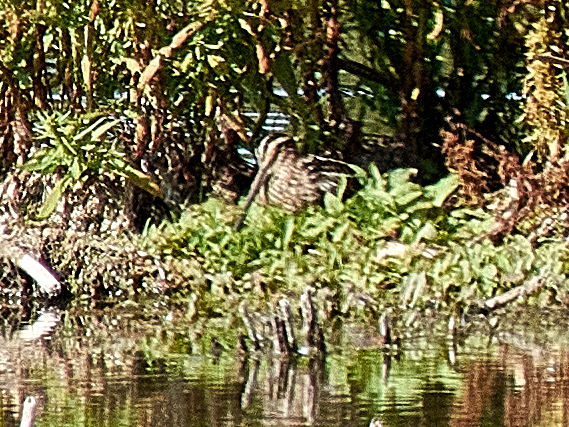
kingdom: Animalia
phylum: Chordata
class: Aves
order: Charadriiformes
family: Scolopacidae
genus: Gallinago
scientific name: Gallinago gallinago
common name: Common snipe
